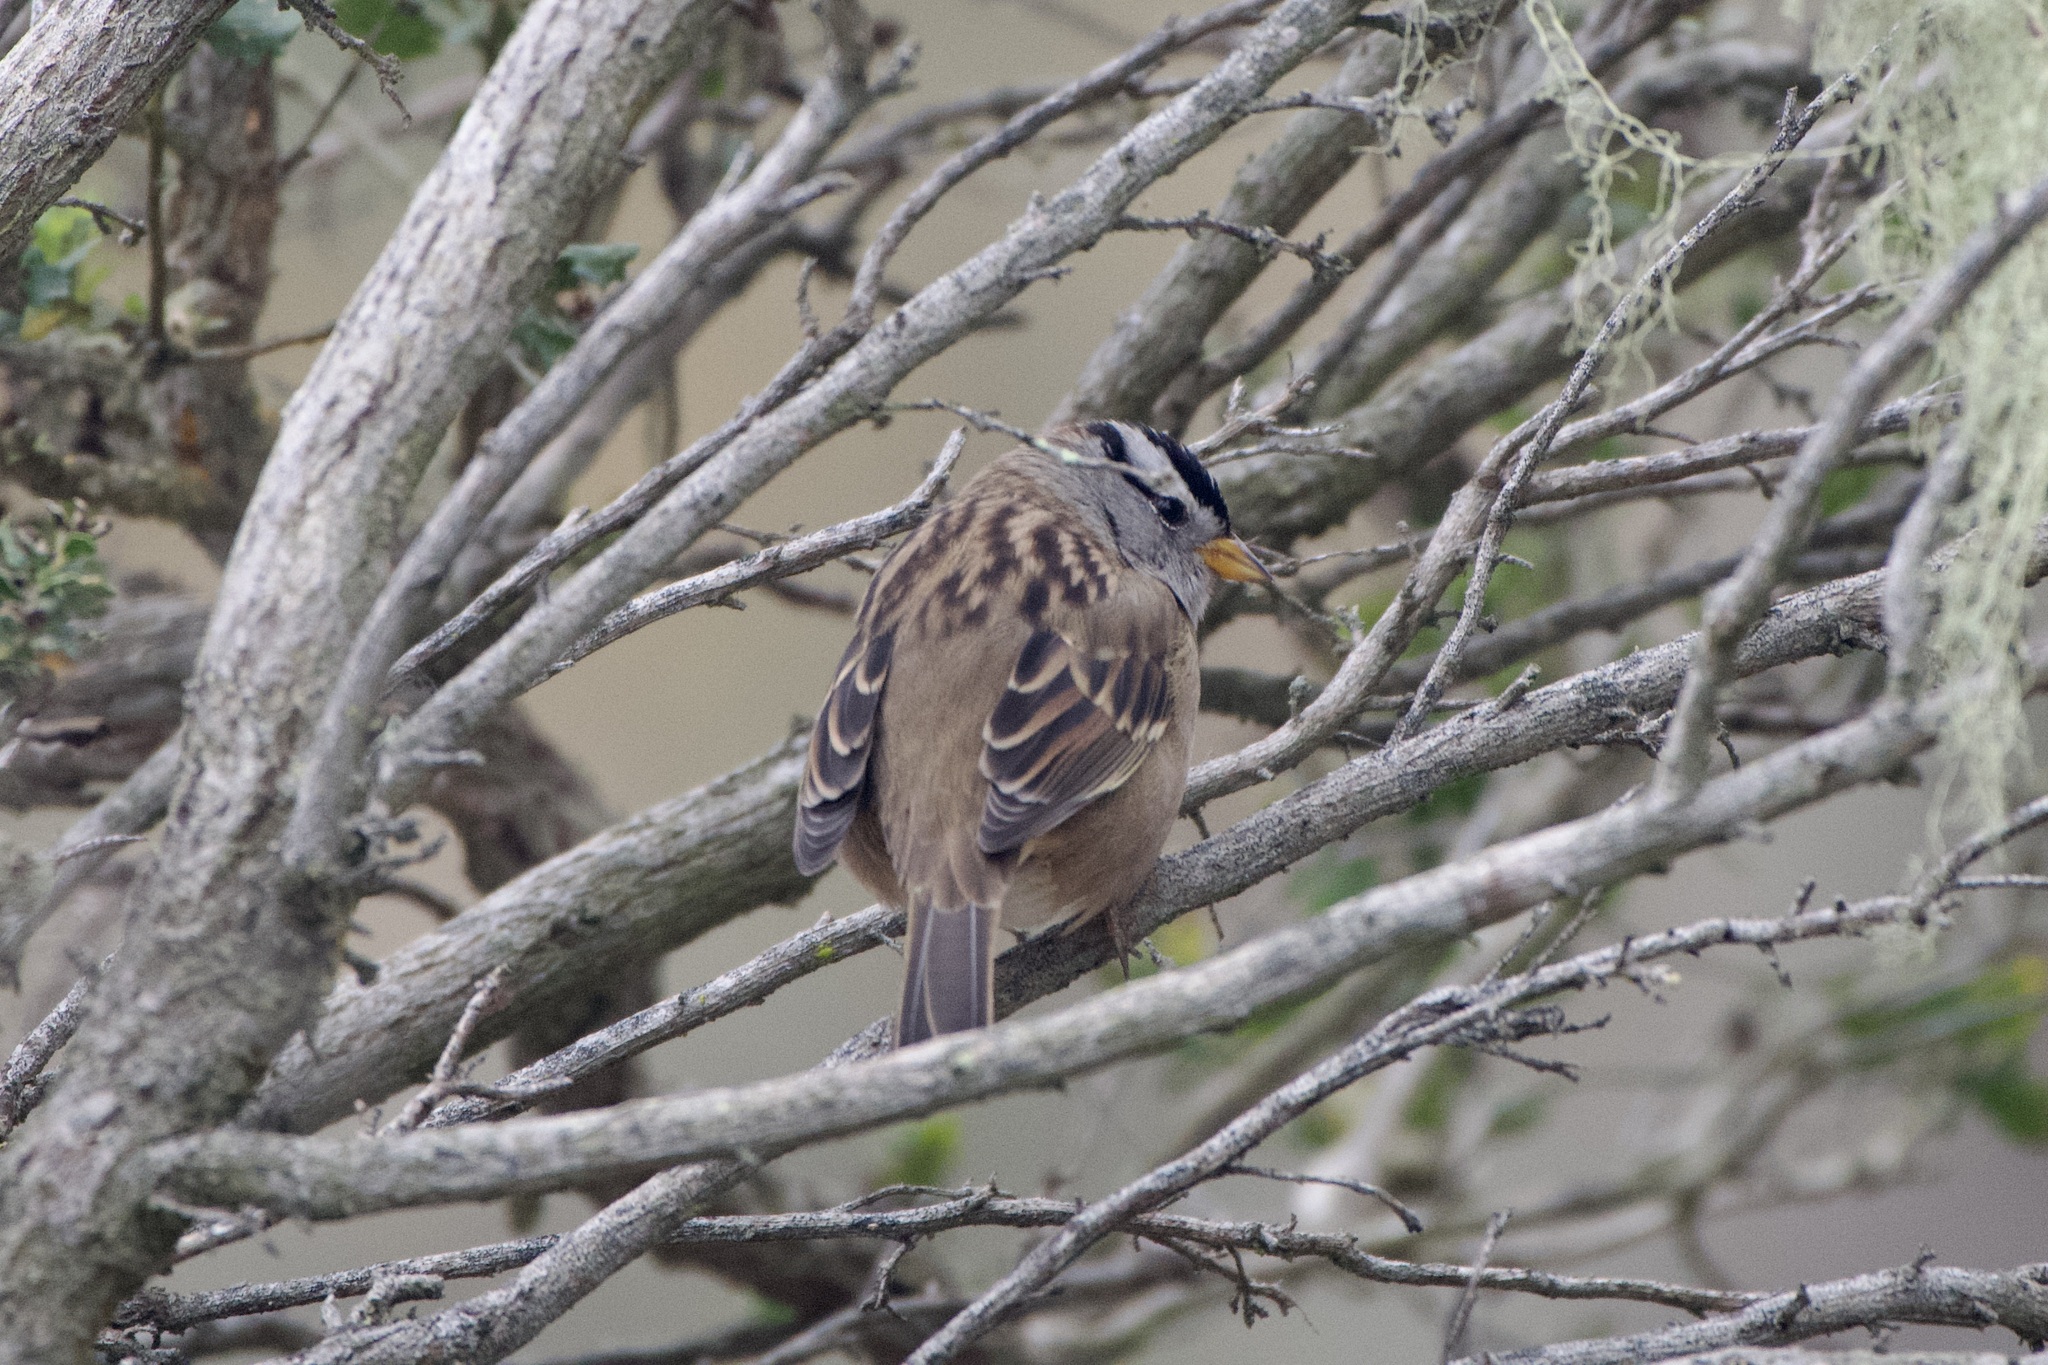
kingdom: Animalia
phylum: Chordata
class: Aves
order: Passeriformes
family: Passerellidae
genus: Zonotrichia
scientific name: Zonotrichia leucophrys
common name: White-crowned sparrow
